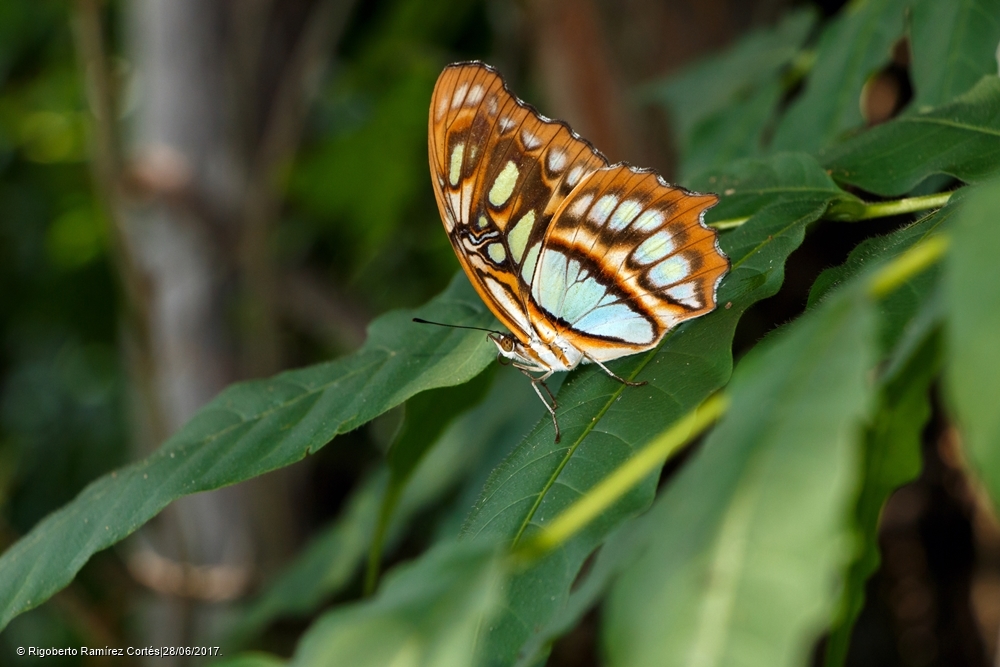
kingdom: Animalia
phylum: Arthropoda
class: Insecta
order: Lepidoptera
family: Nymphalidae
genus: Siproeta
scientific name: Siproeta stelenes
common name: Malachite
